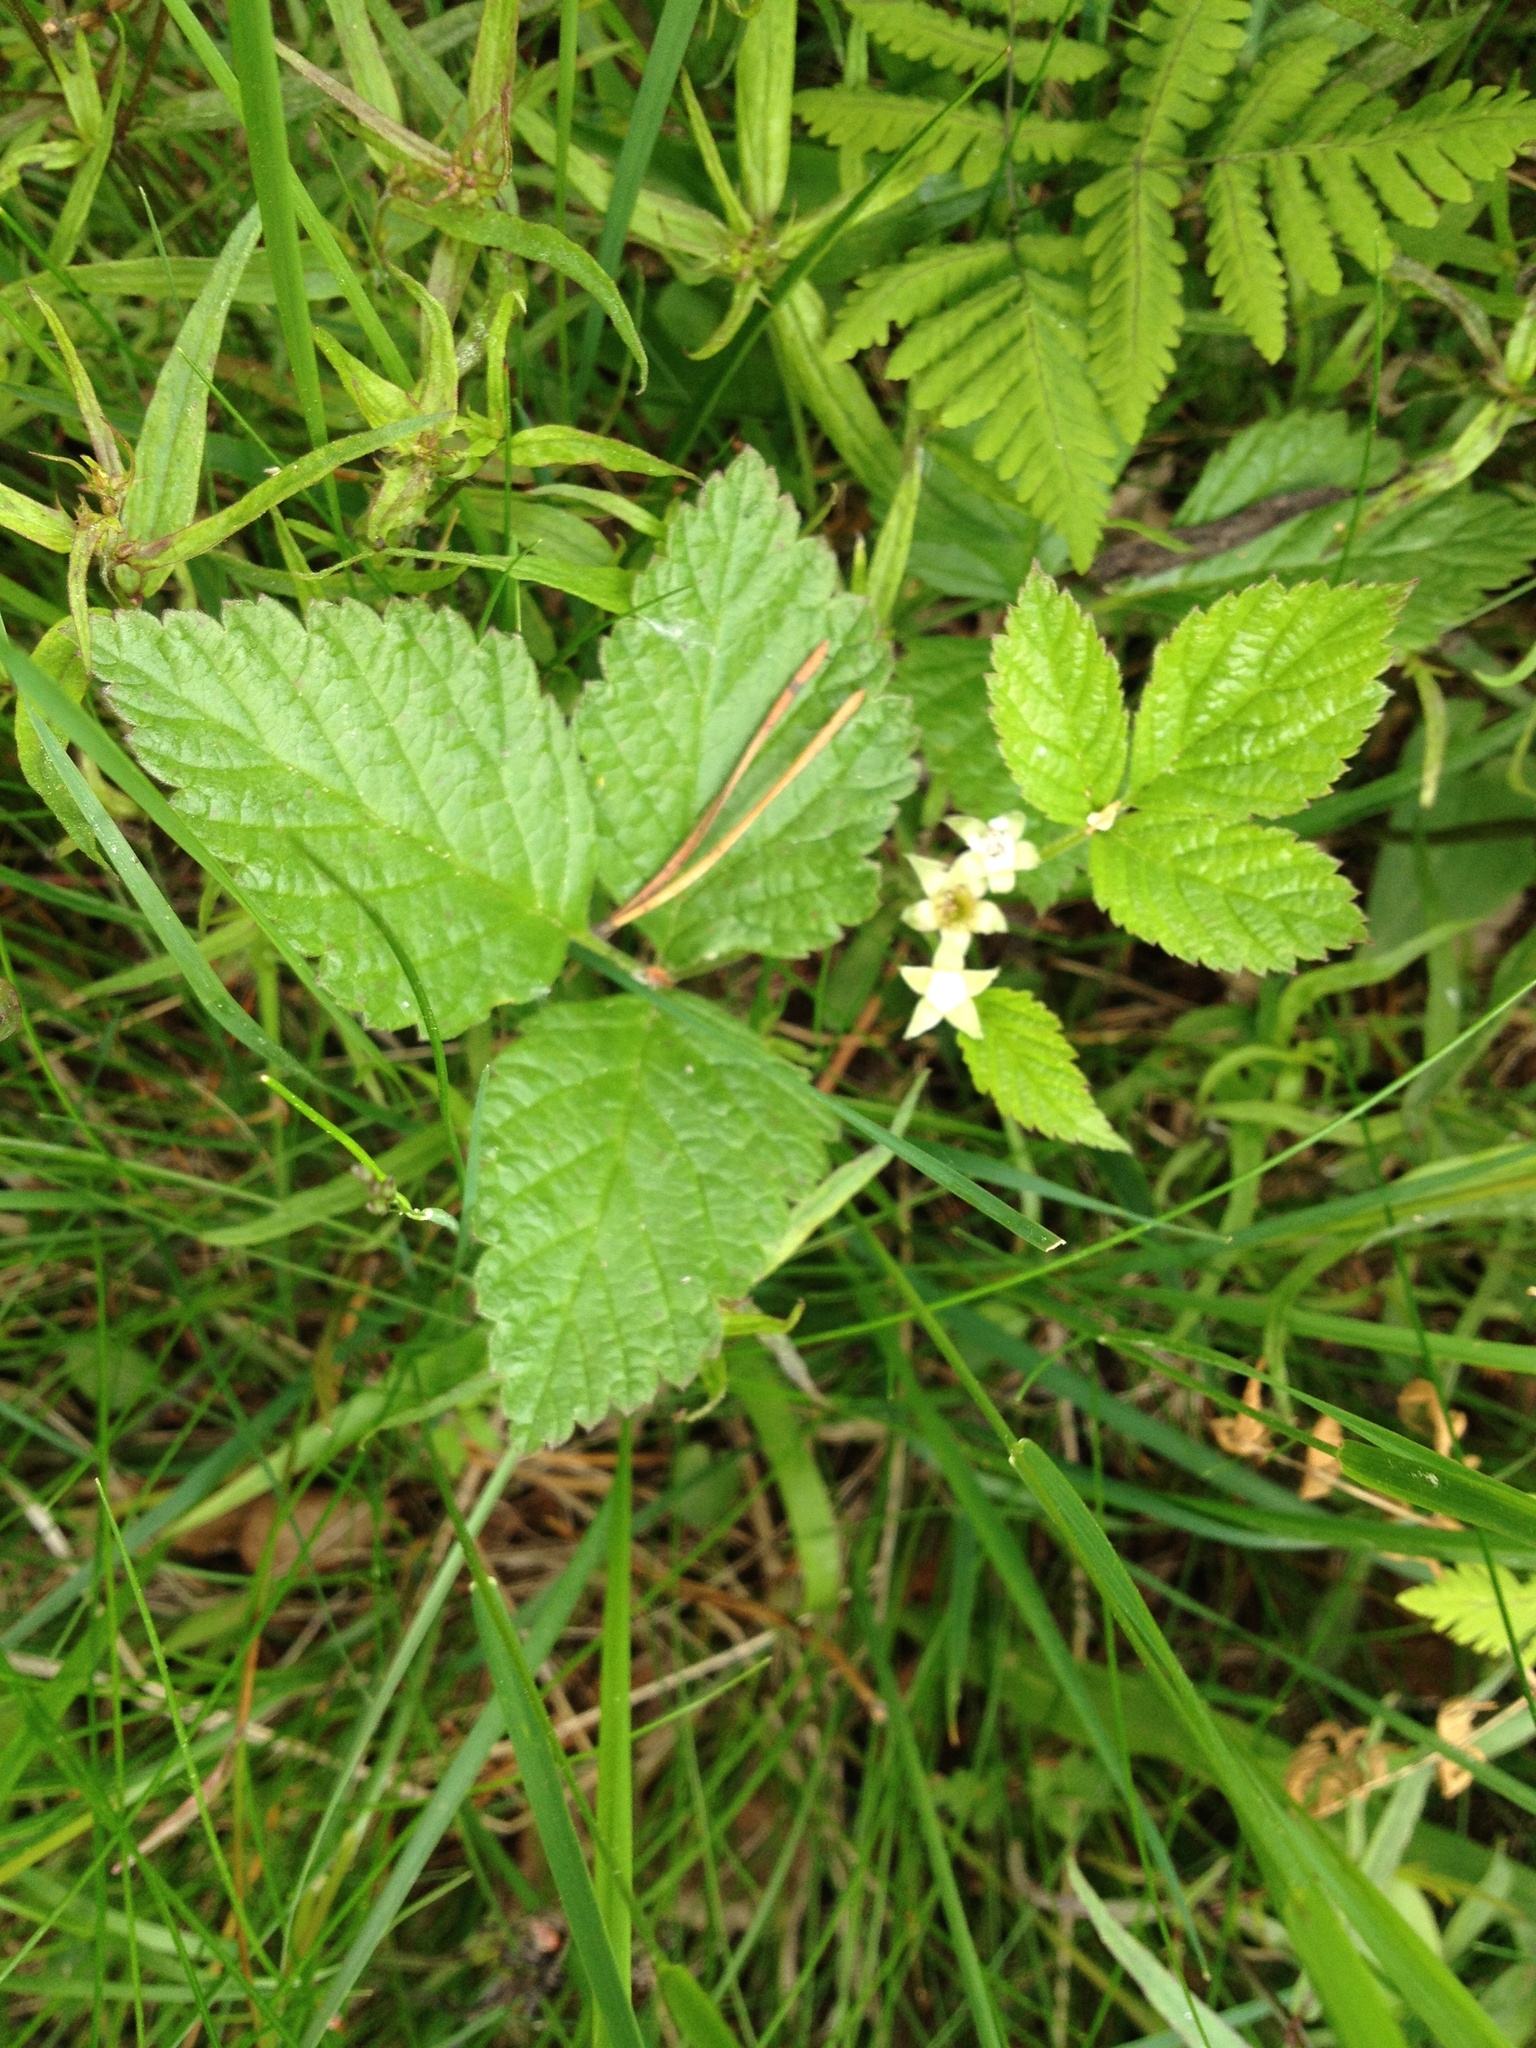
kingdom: Plantae
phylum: Tracheophyta
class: Magnoliopsida
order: Rosales
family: Rosaceae
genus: Rubus
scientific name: Rubus saxatilis
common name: Stone bramble
